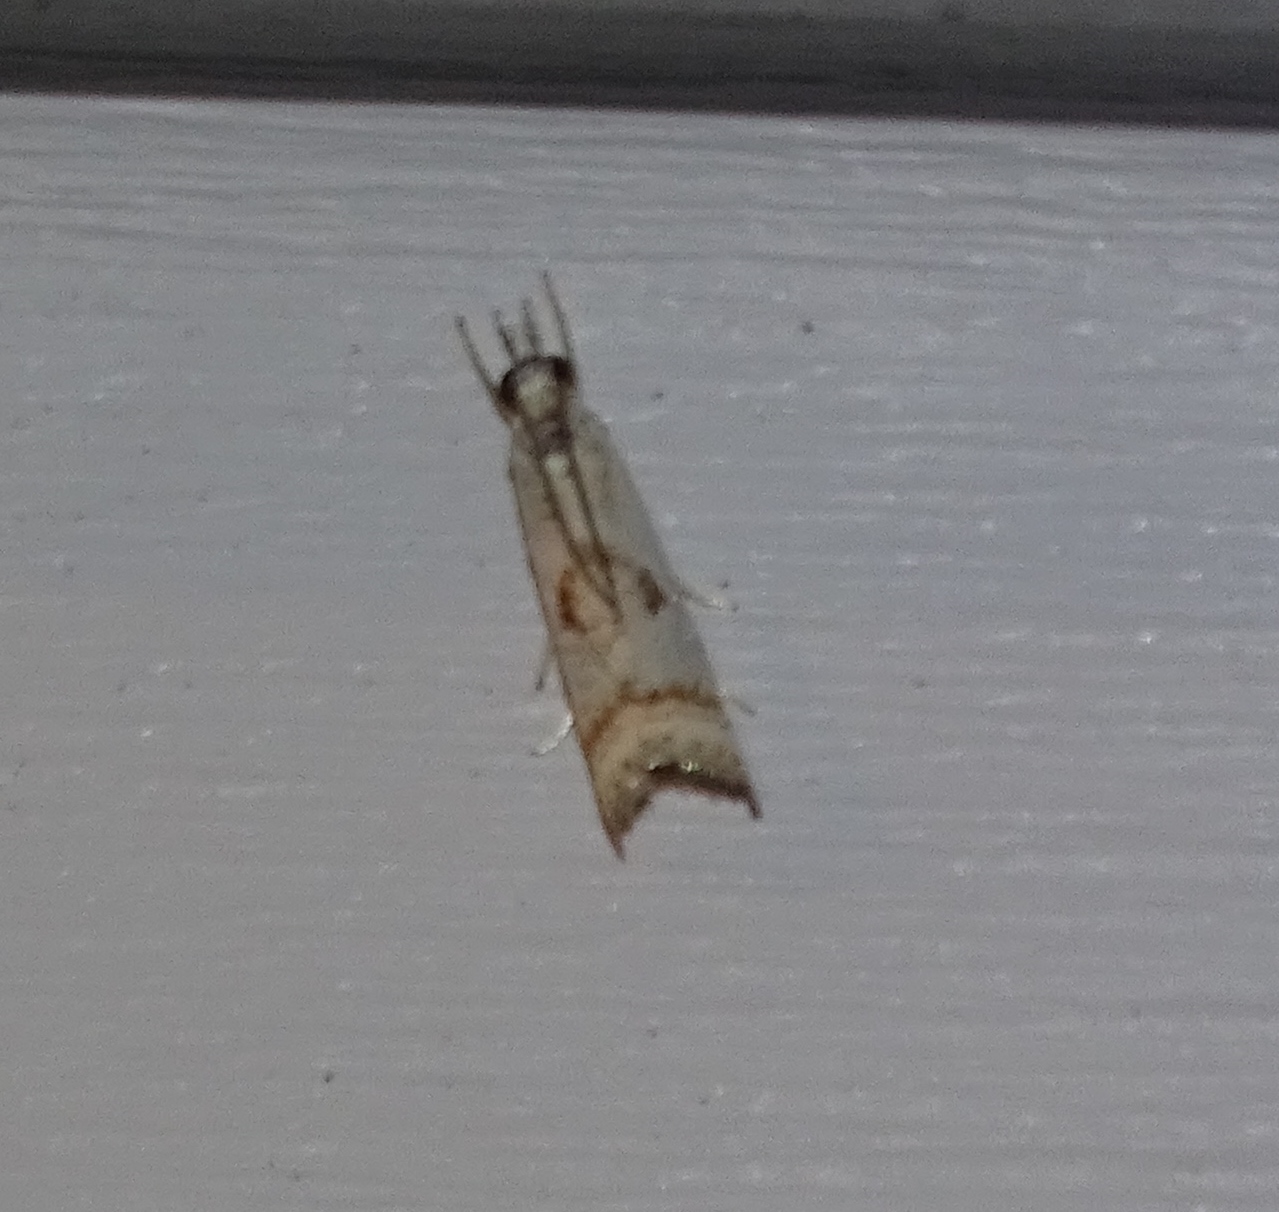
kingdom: Animalia
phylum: Arthropoda
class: Insecta
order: Lepidoptera
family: Crambidae
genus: Microcrambus
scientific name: Microcrambus elegans
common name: Elegant grass-veneer
